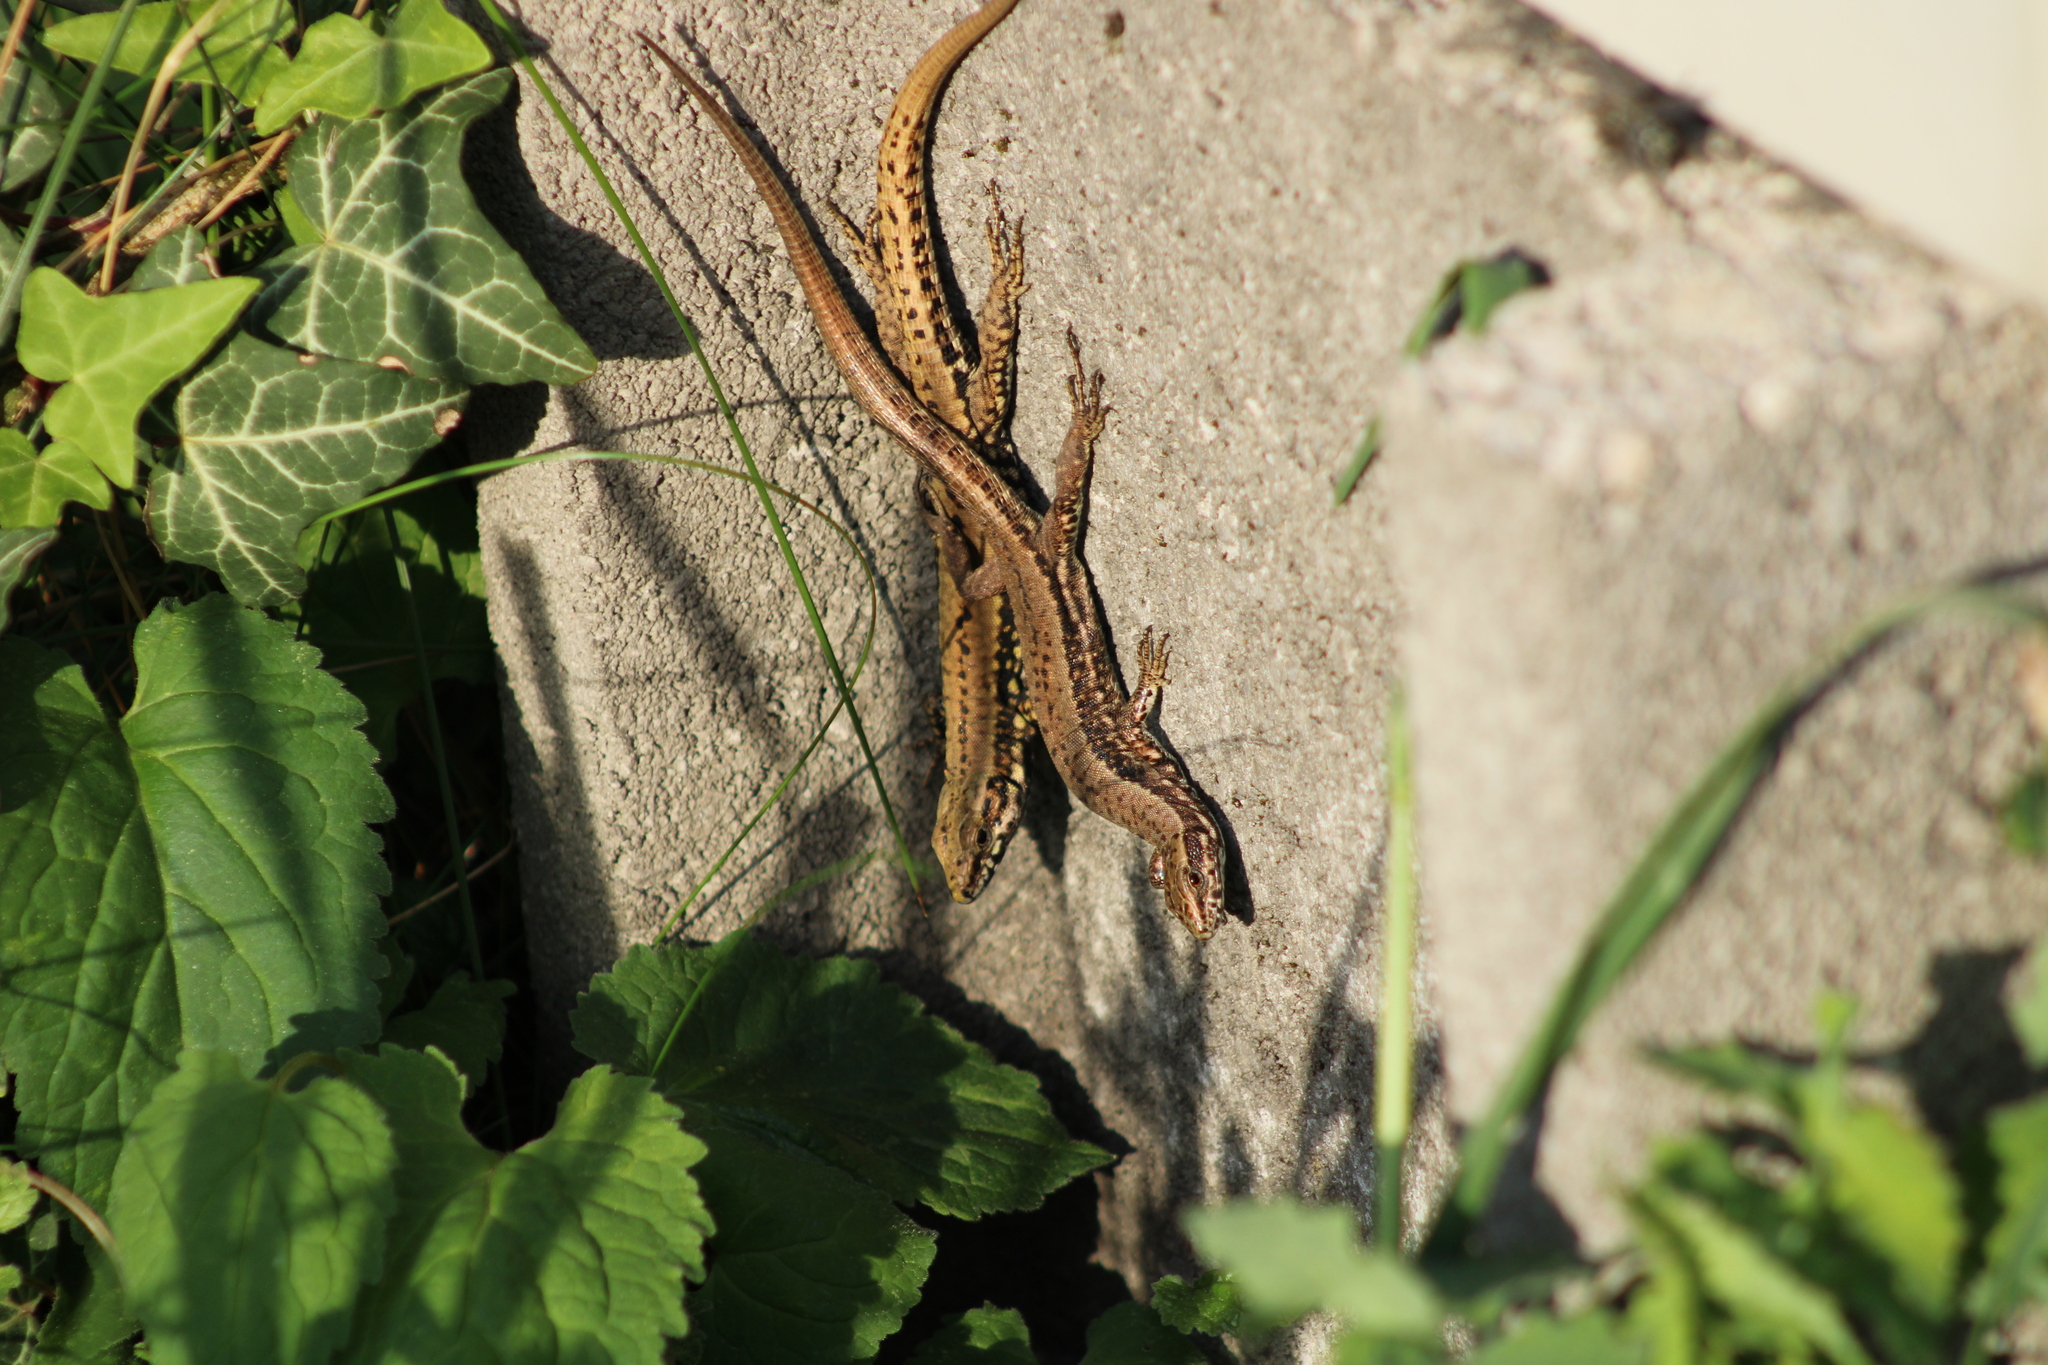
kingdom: Animalia
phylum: Chordata
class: Squamata
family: Lacertidae
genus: Podarcis
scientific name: Podarcis muralis
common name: Common wall lizard
